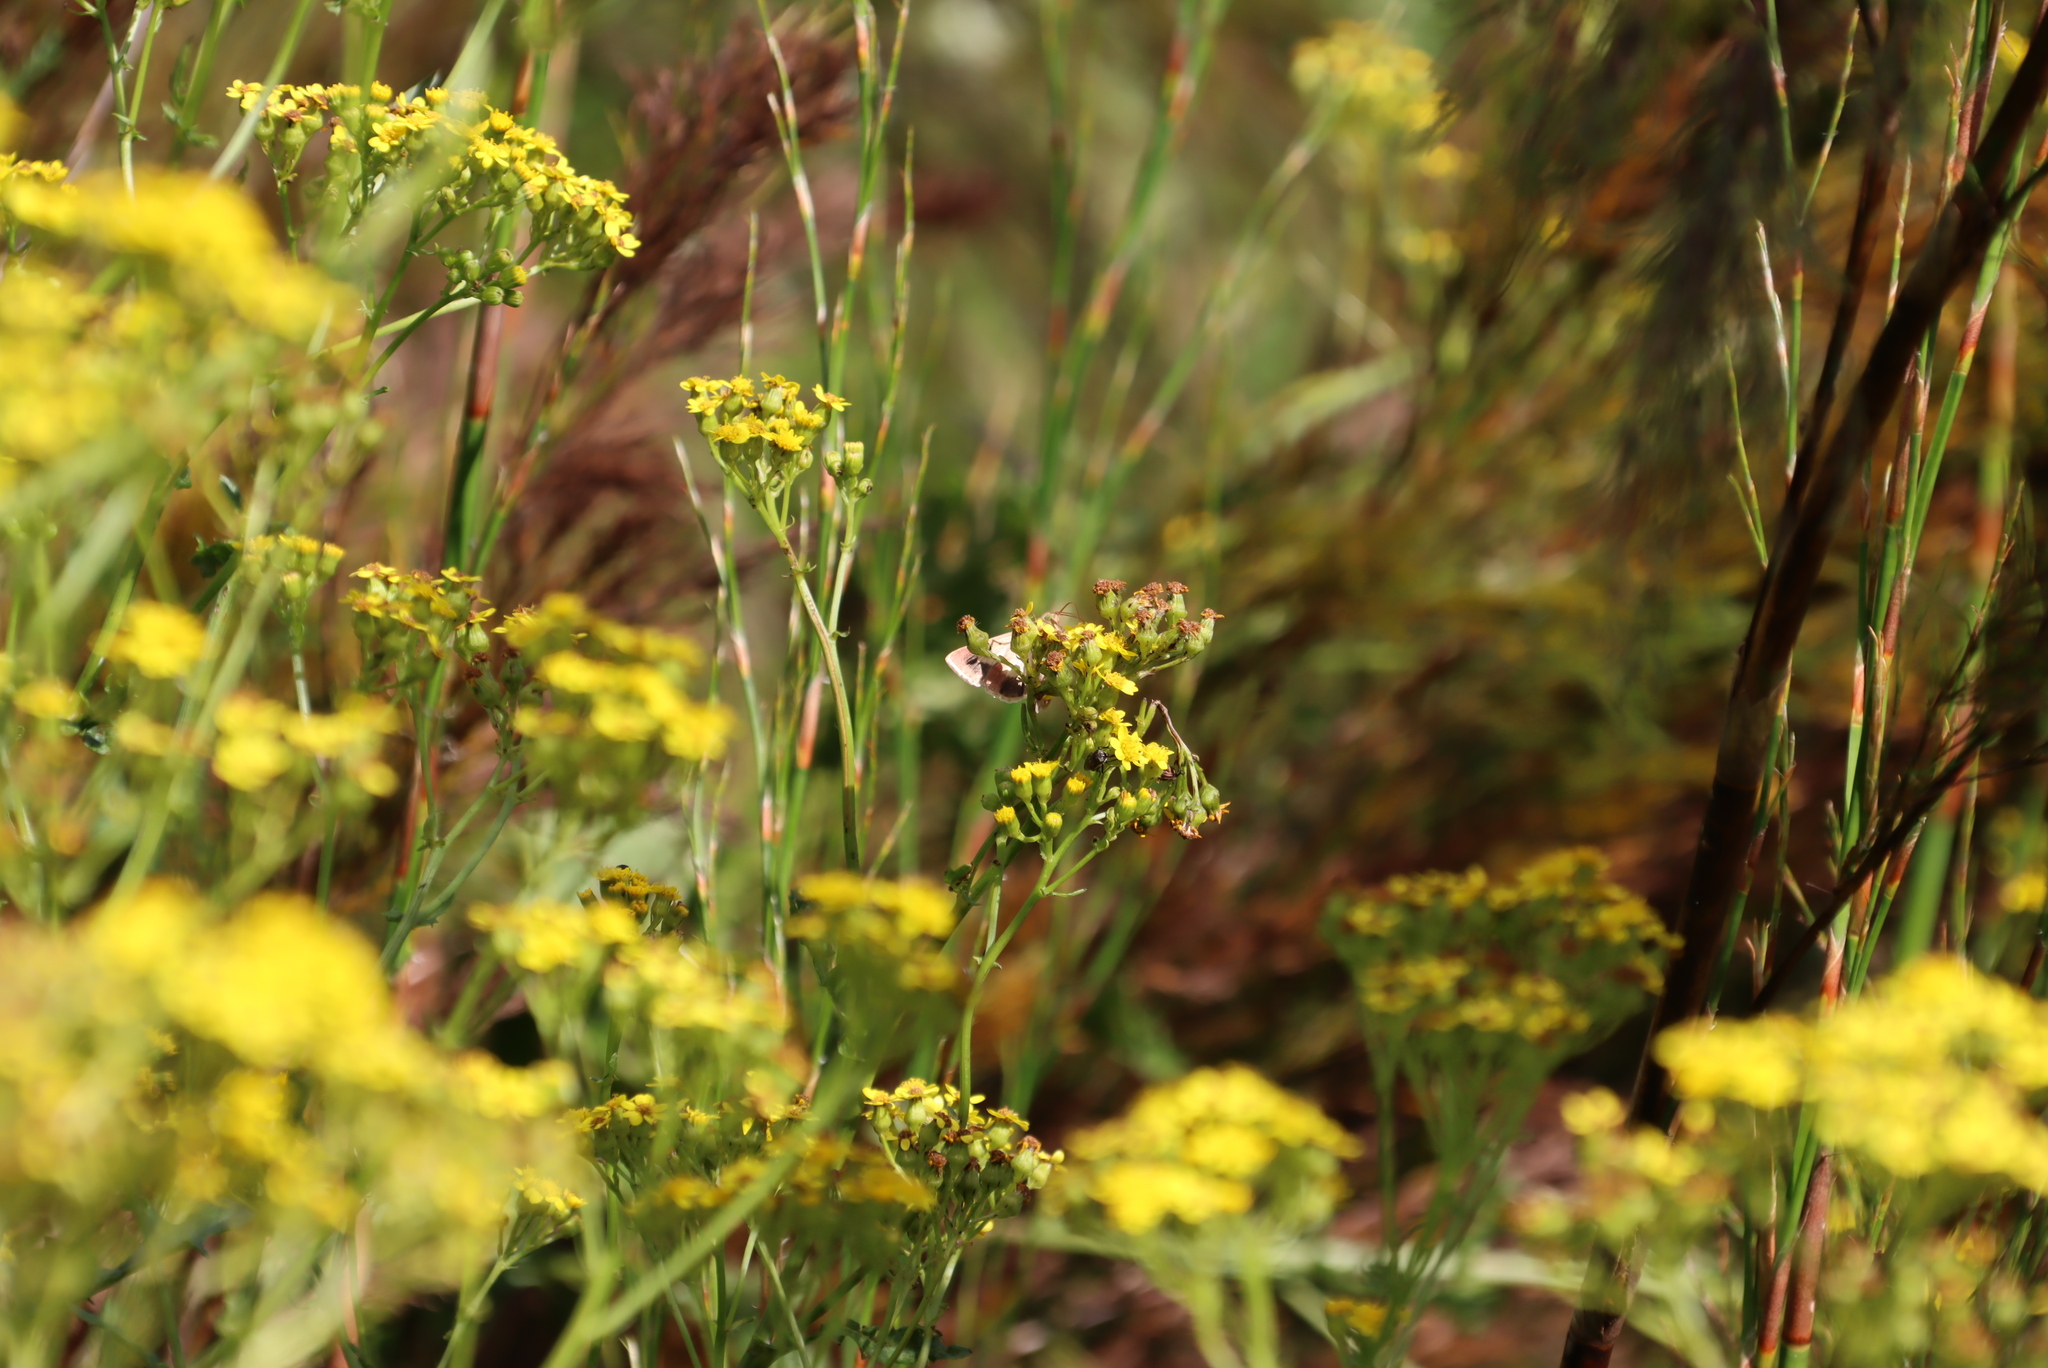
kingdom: Animalia
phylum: Arthropoda
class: Insecta
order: Lepidoptera
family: Noctuidae
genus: Helicoverpa
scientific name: Helicoverpa armigera
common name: Cotton bollworm
